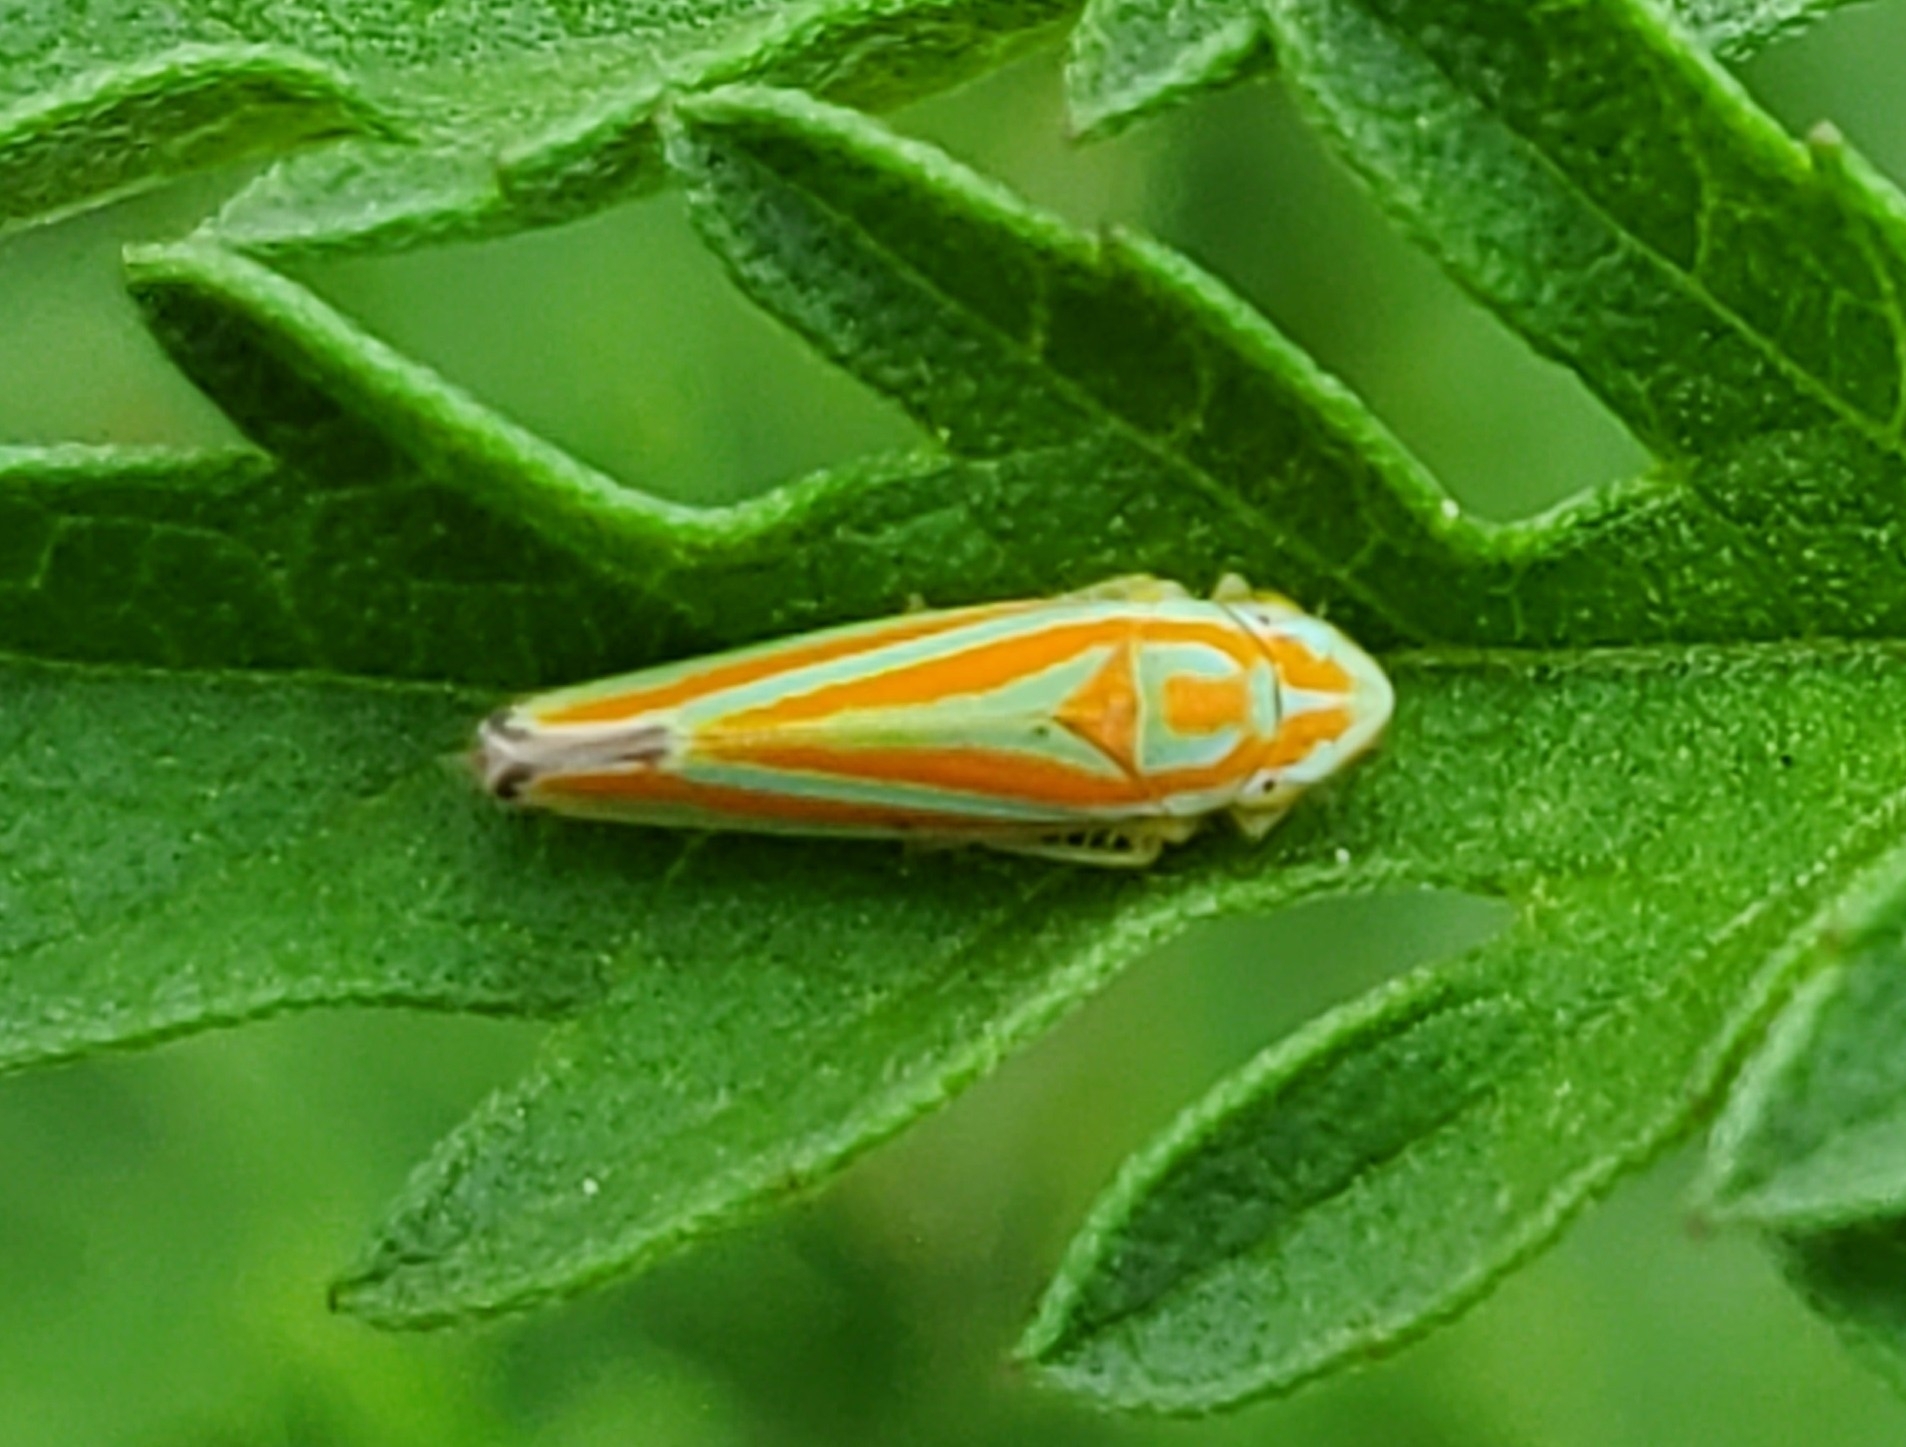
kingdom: Animalia
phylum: Arthropoda
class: Insecta
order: Hemiptera
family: Cicadellidae
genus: Graphocephala
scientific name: Graphocephala versuta
